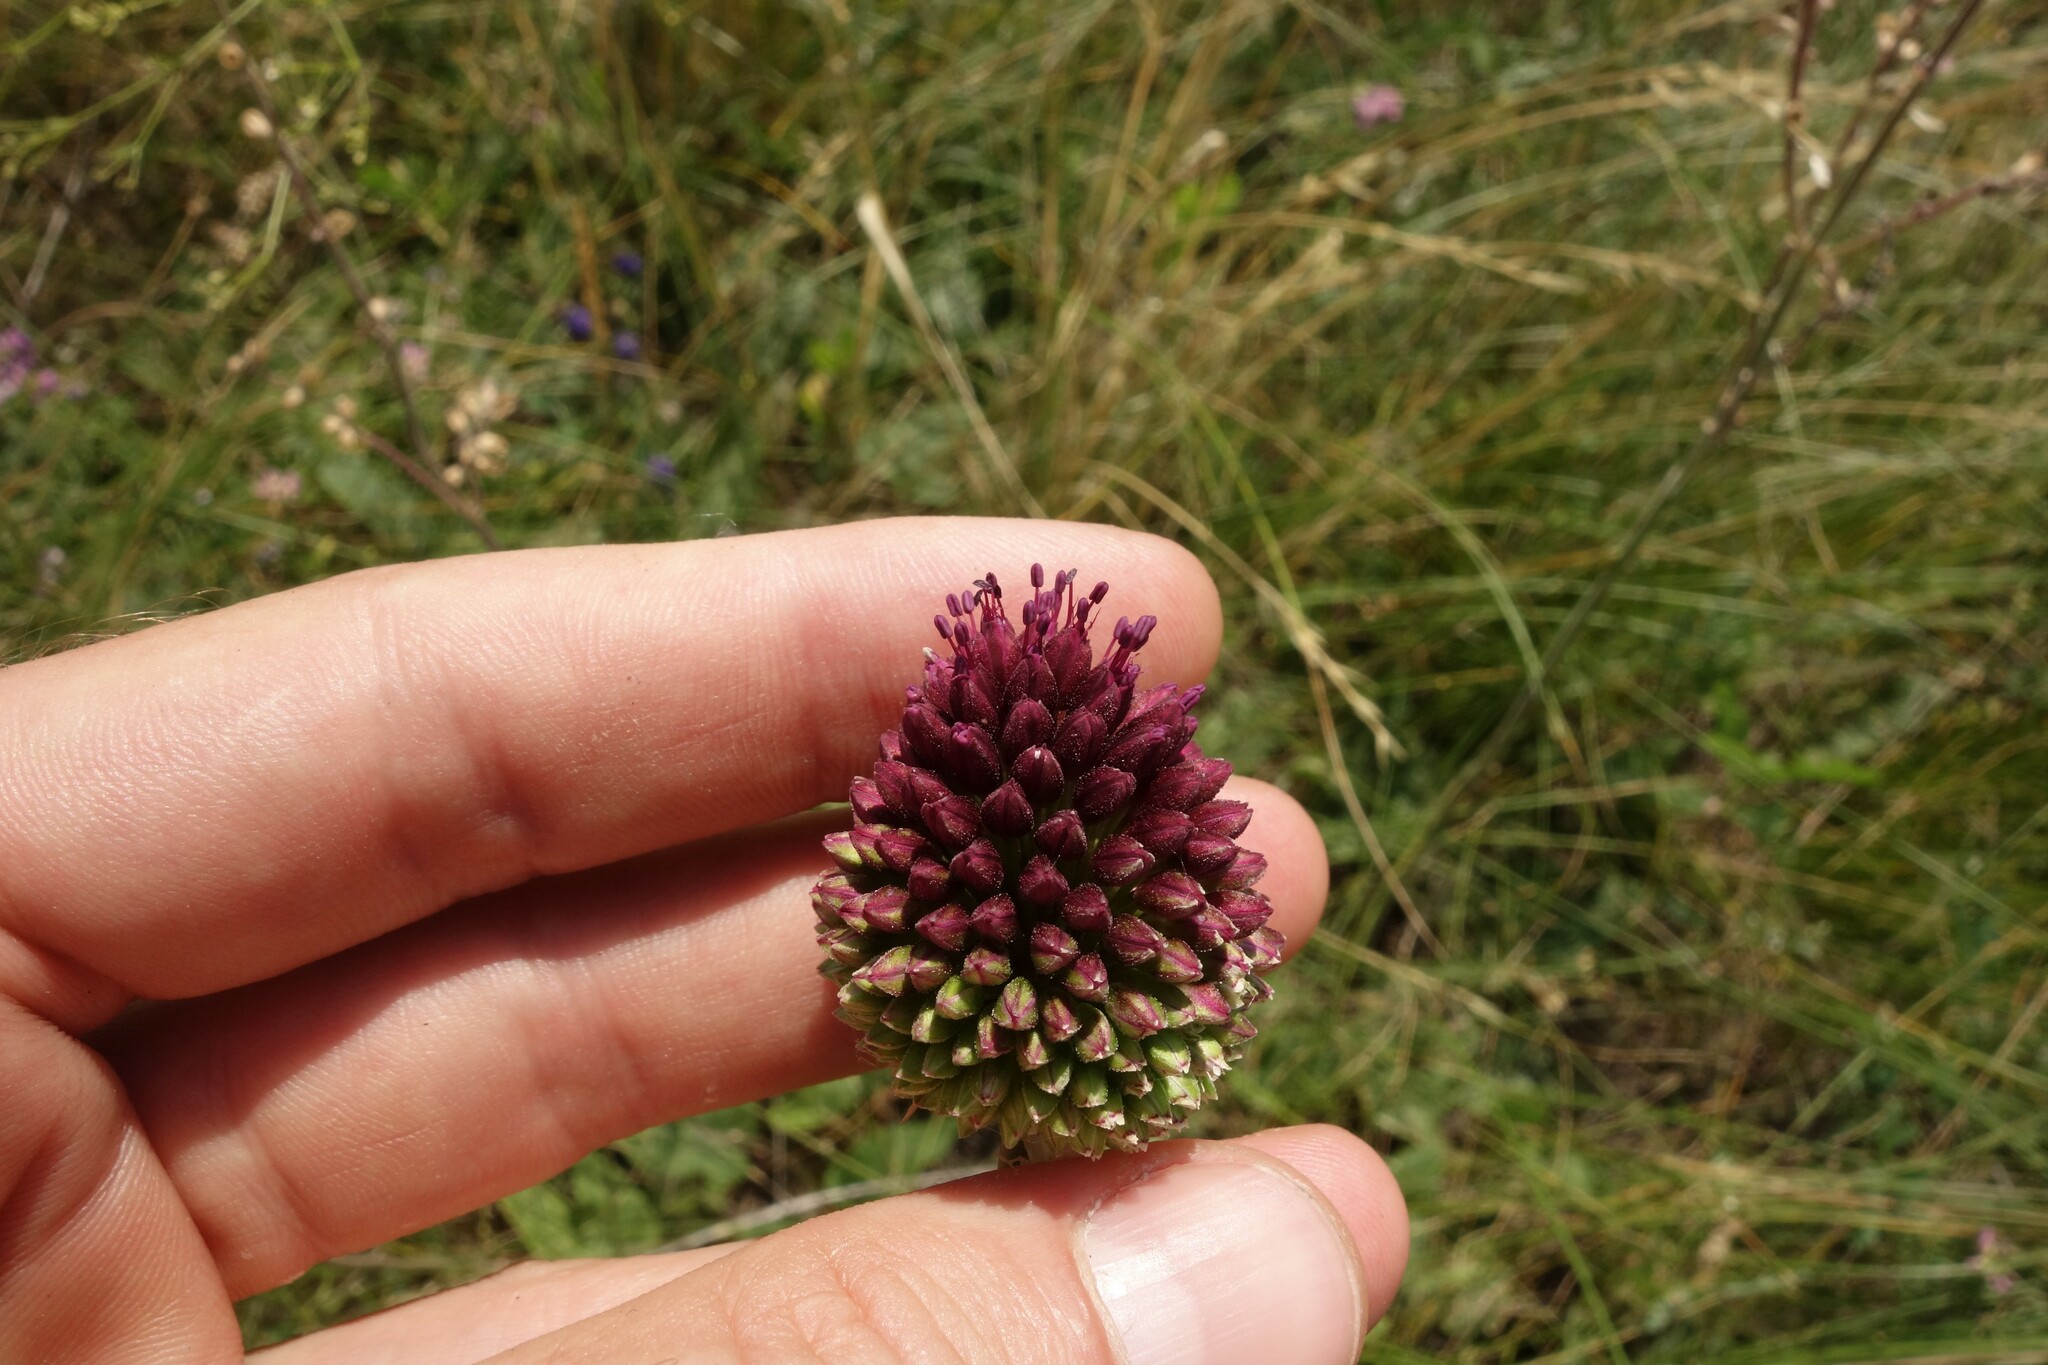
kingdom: Plantae
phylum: Tracheophyta
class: Liliopsida
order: Asparagales
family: Amaryllidaceae
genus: Allium
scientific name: Allium sphaerocephalon
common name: Round-headed leek
